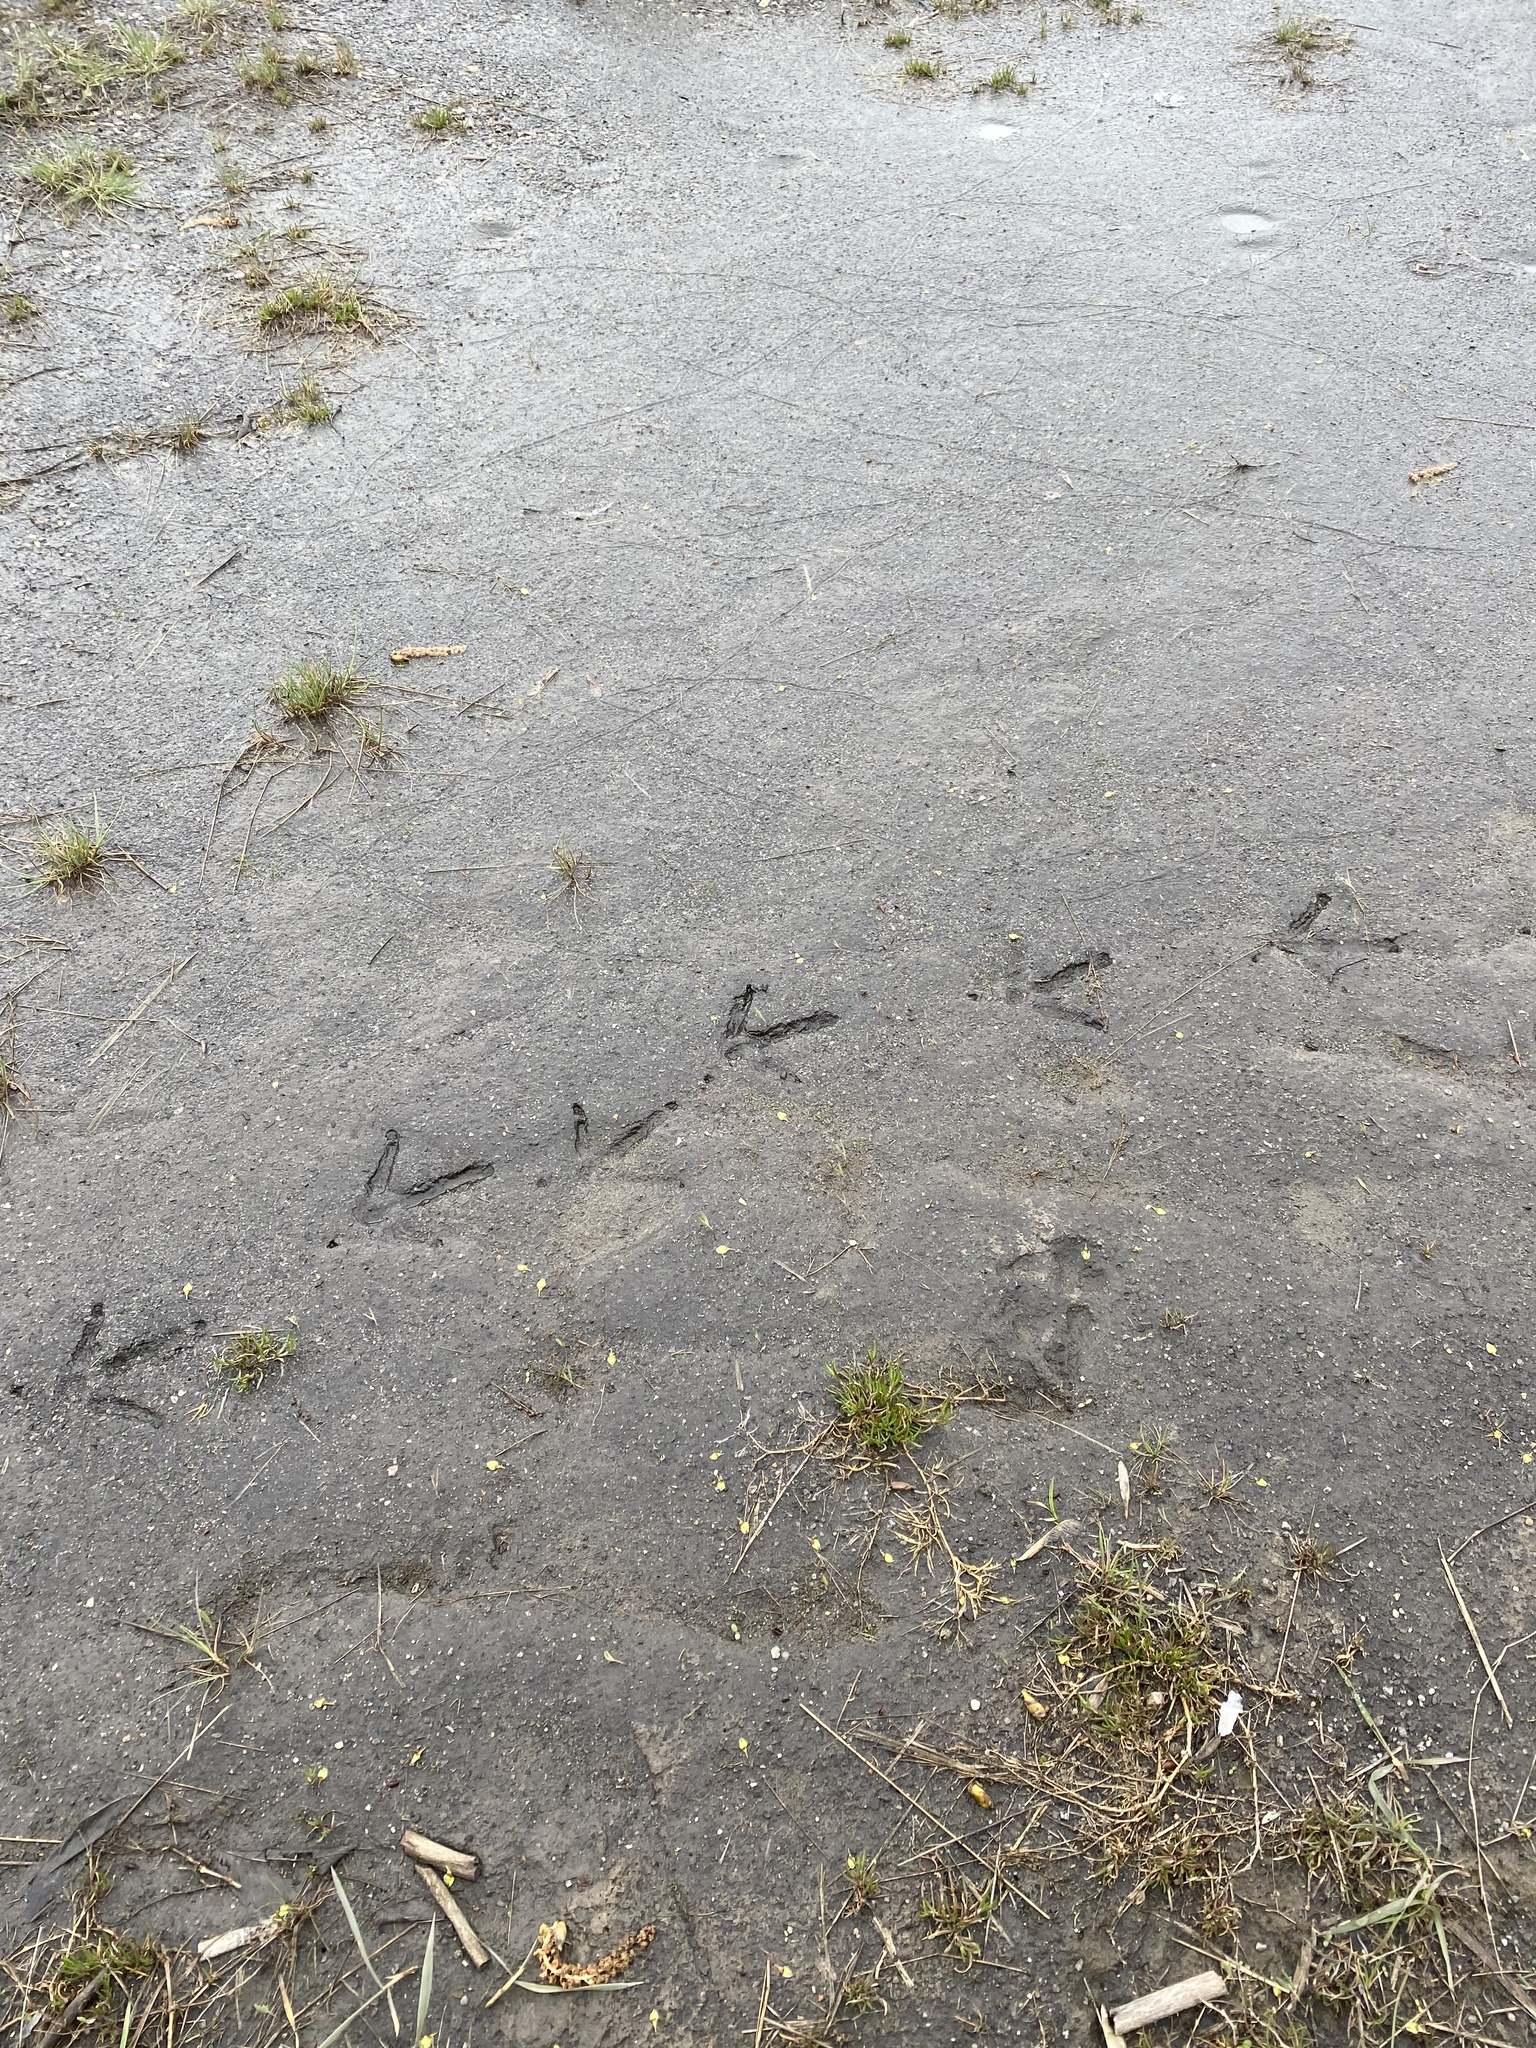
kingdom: Animalia
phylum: Chordata
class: Aves
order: Galliformes
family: Phasianidae
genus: Meleagris
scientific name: Meleagris gallopavo
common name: Wild turkey
